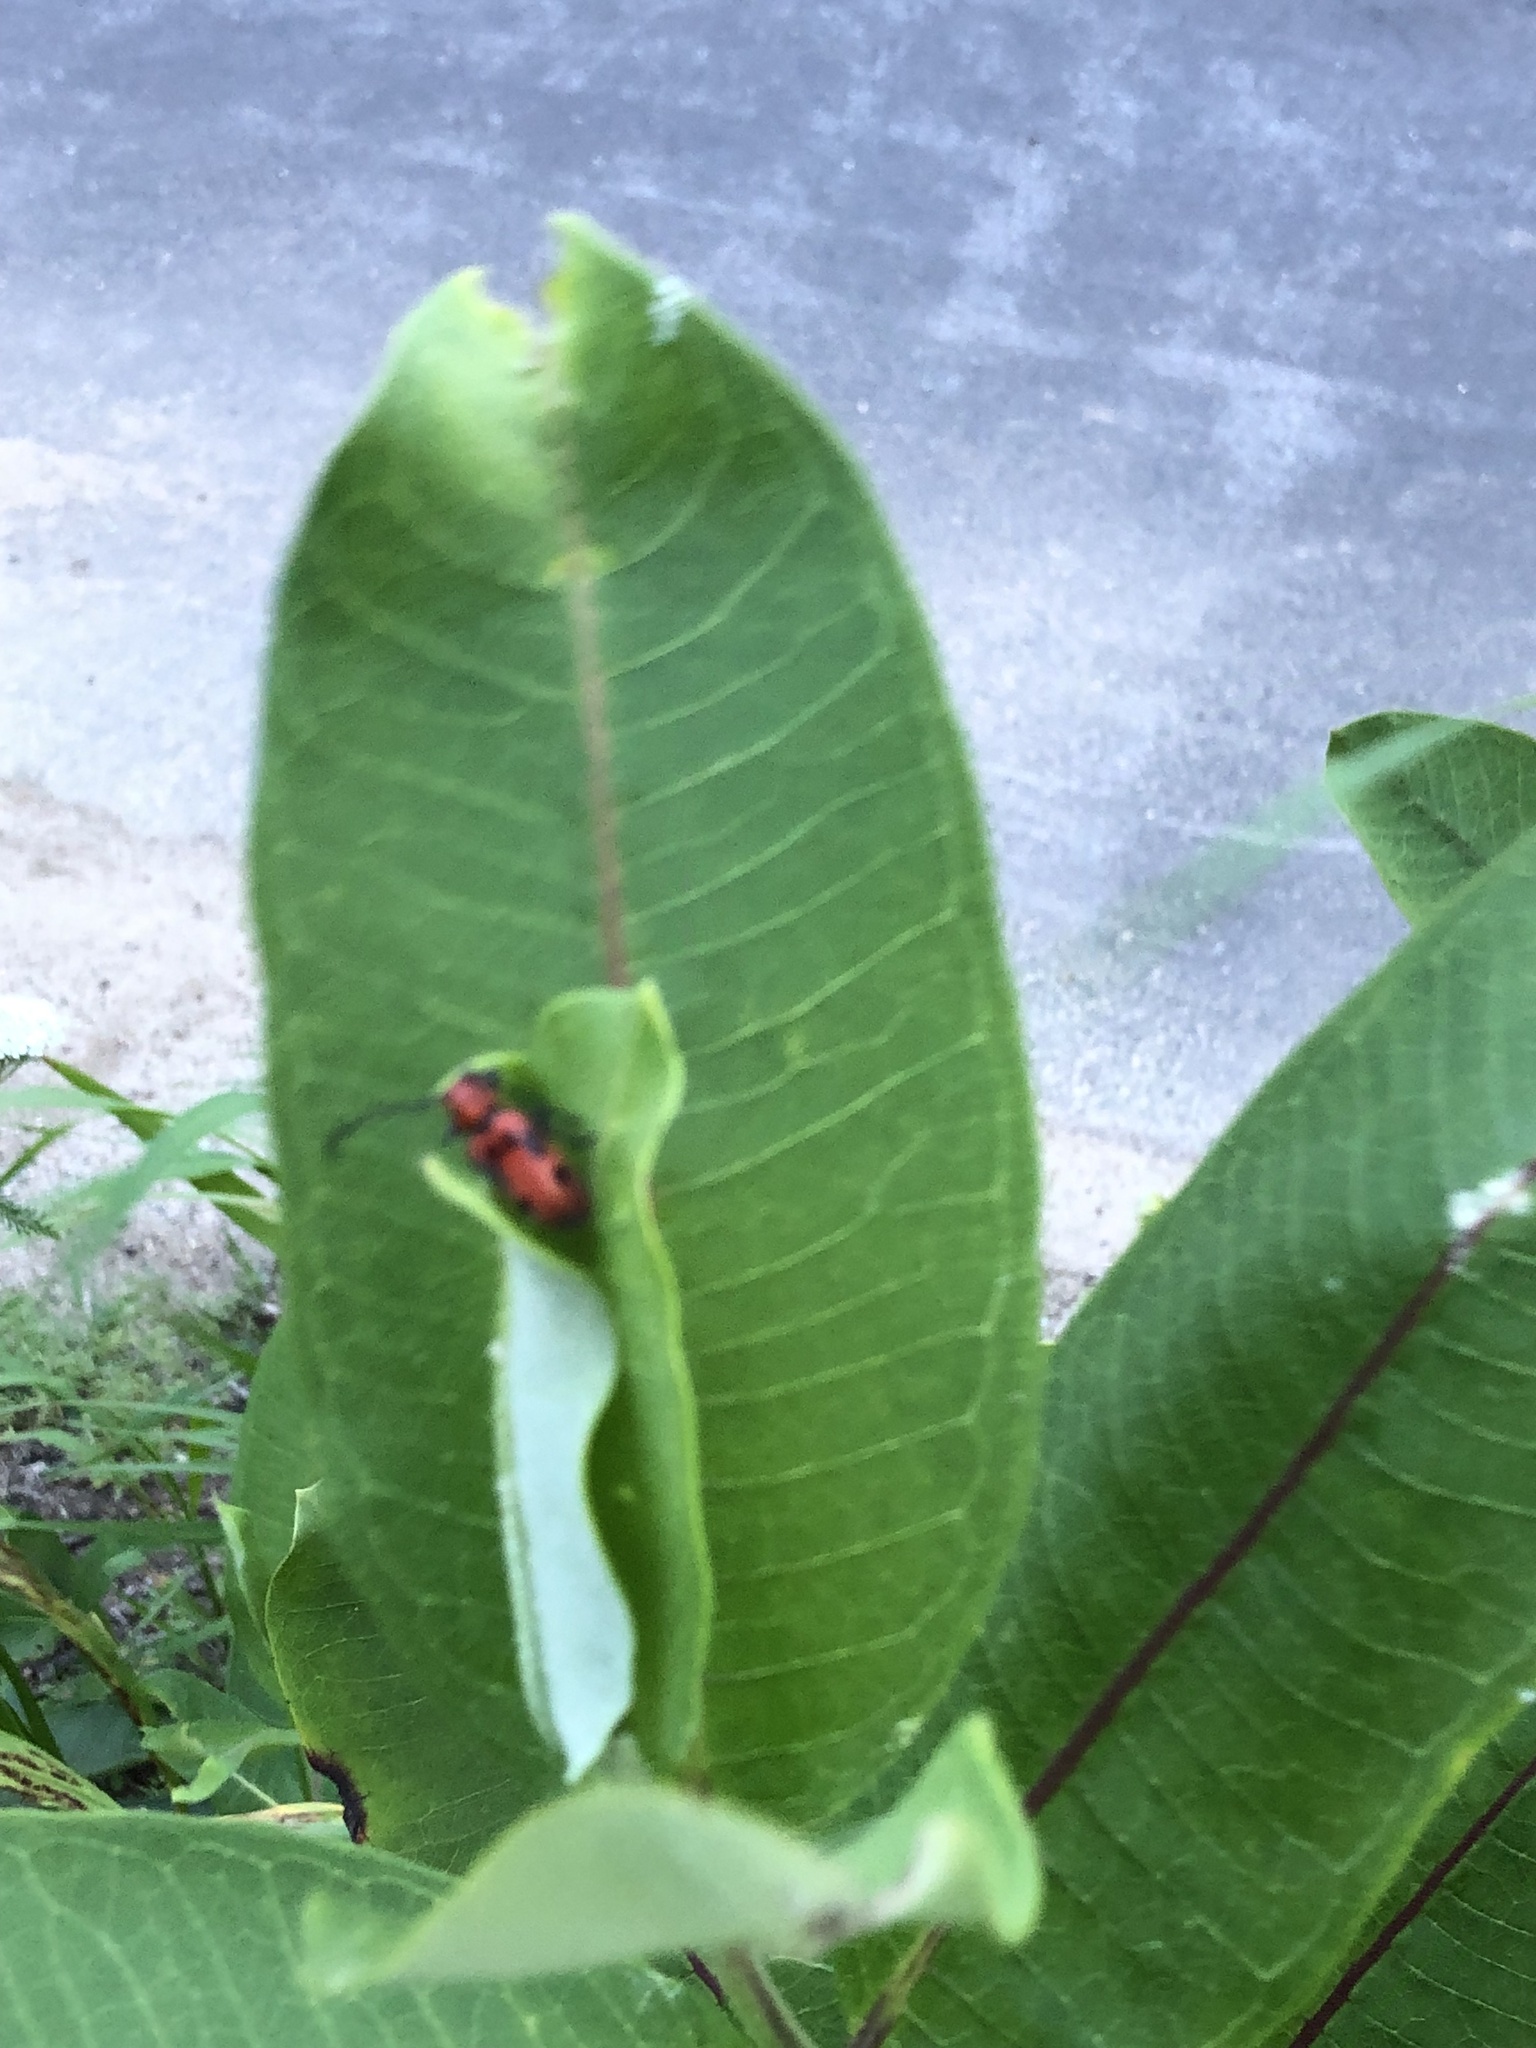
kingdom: Animalia
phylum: Arthropoda
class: Insecta
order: Coleoptera
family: Cerambycidae
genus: Tetraopes
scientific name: Tetraopes tetrophthalmus
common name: Red milkweed beetle
